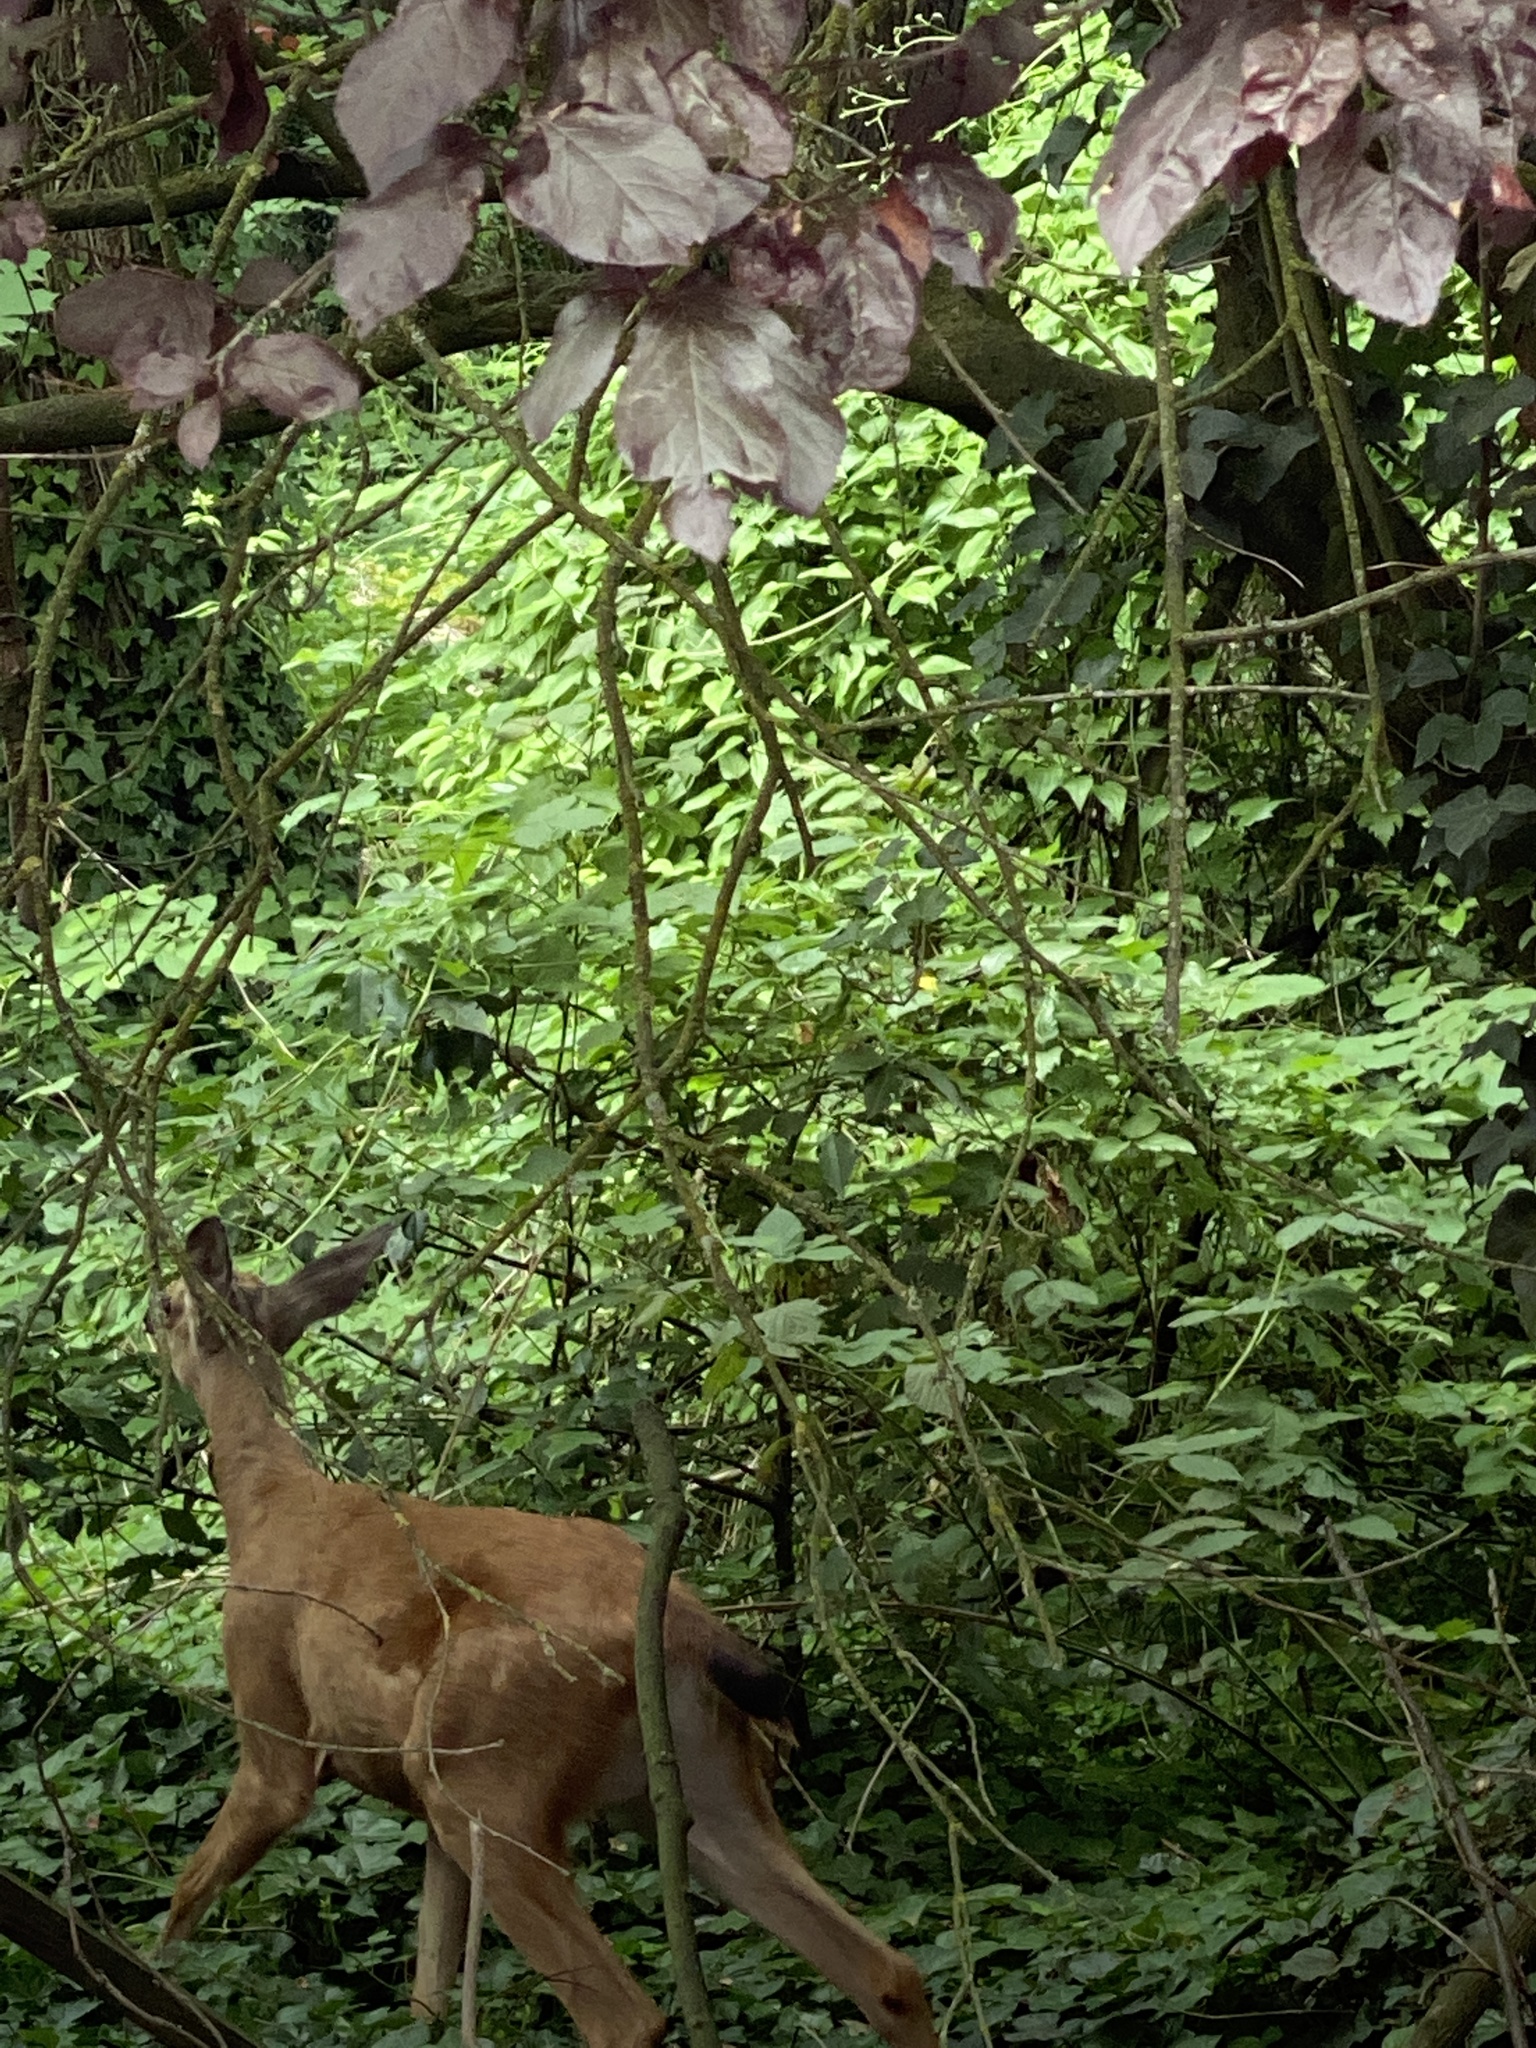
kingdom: Animalia
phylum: Chordata
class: Mammalia
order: Artiodactyla
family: Cervidae
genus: Odocoileus
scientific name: Odocoileus hemionus
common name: Mule deer
